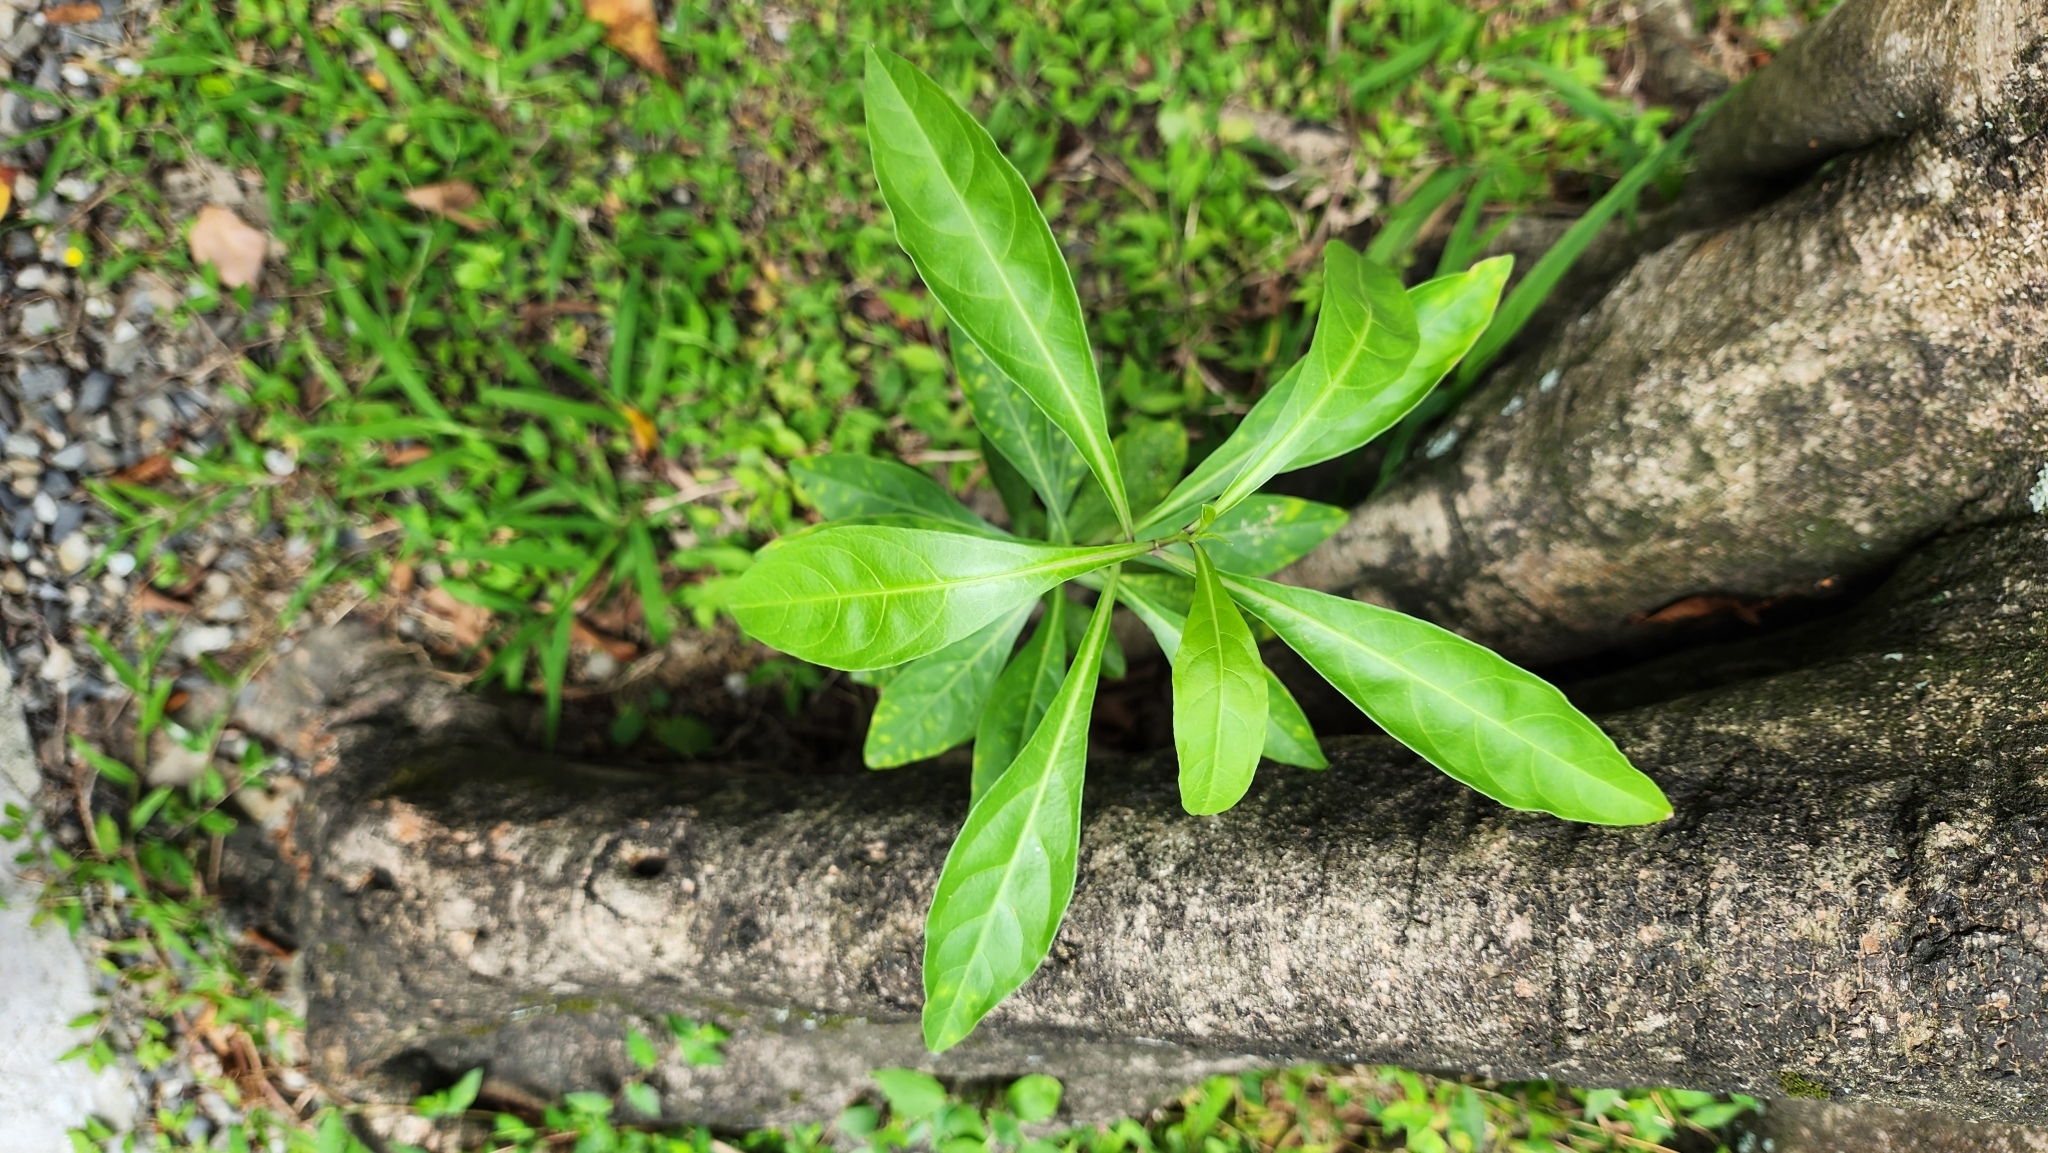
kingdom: Plantae
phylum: Tracheophyta
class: Magnoliopsida
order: Solanales
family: Solanaceae
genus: Solanum
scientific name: Solanum diphyllum
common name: Twoleaf nightshade
